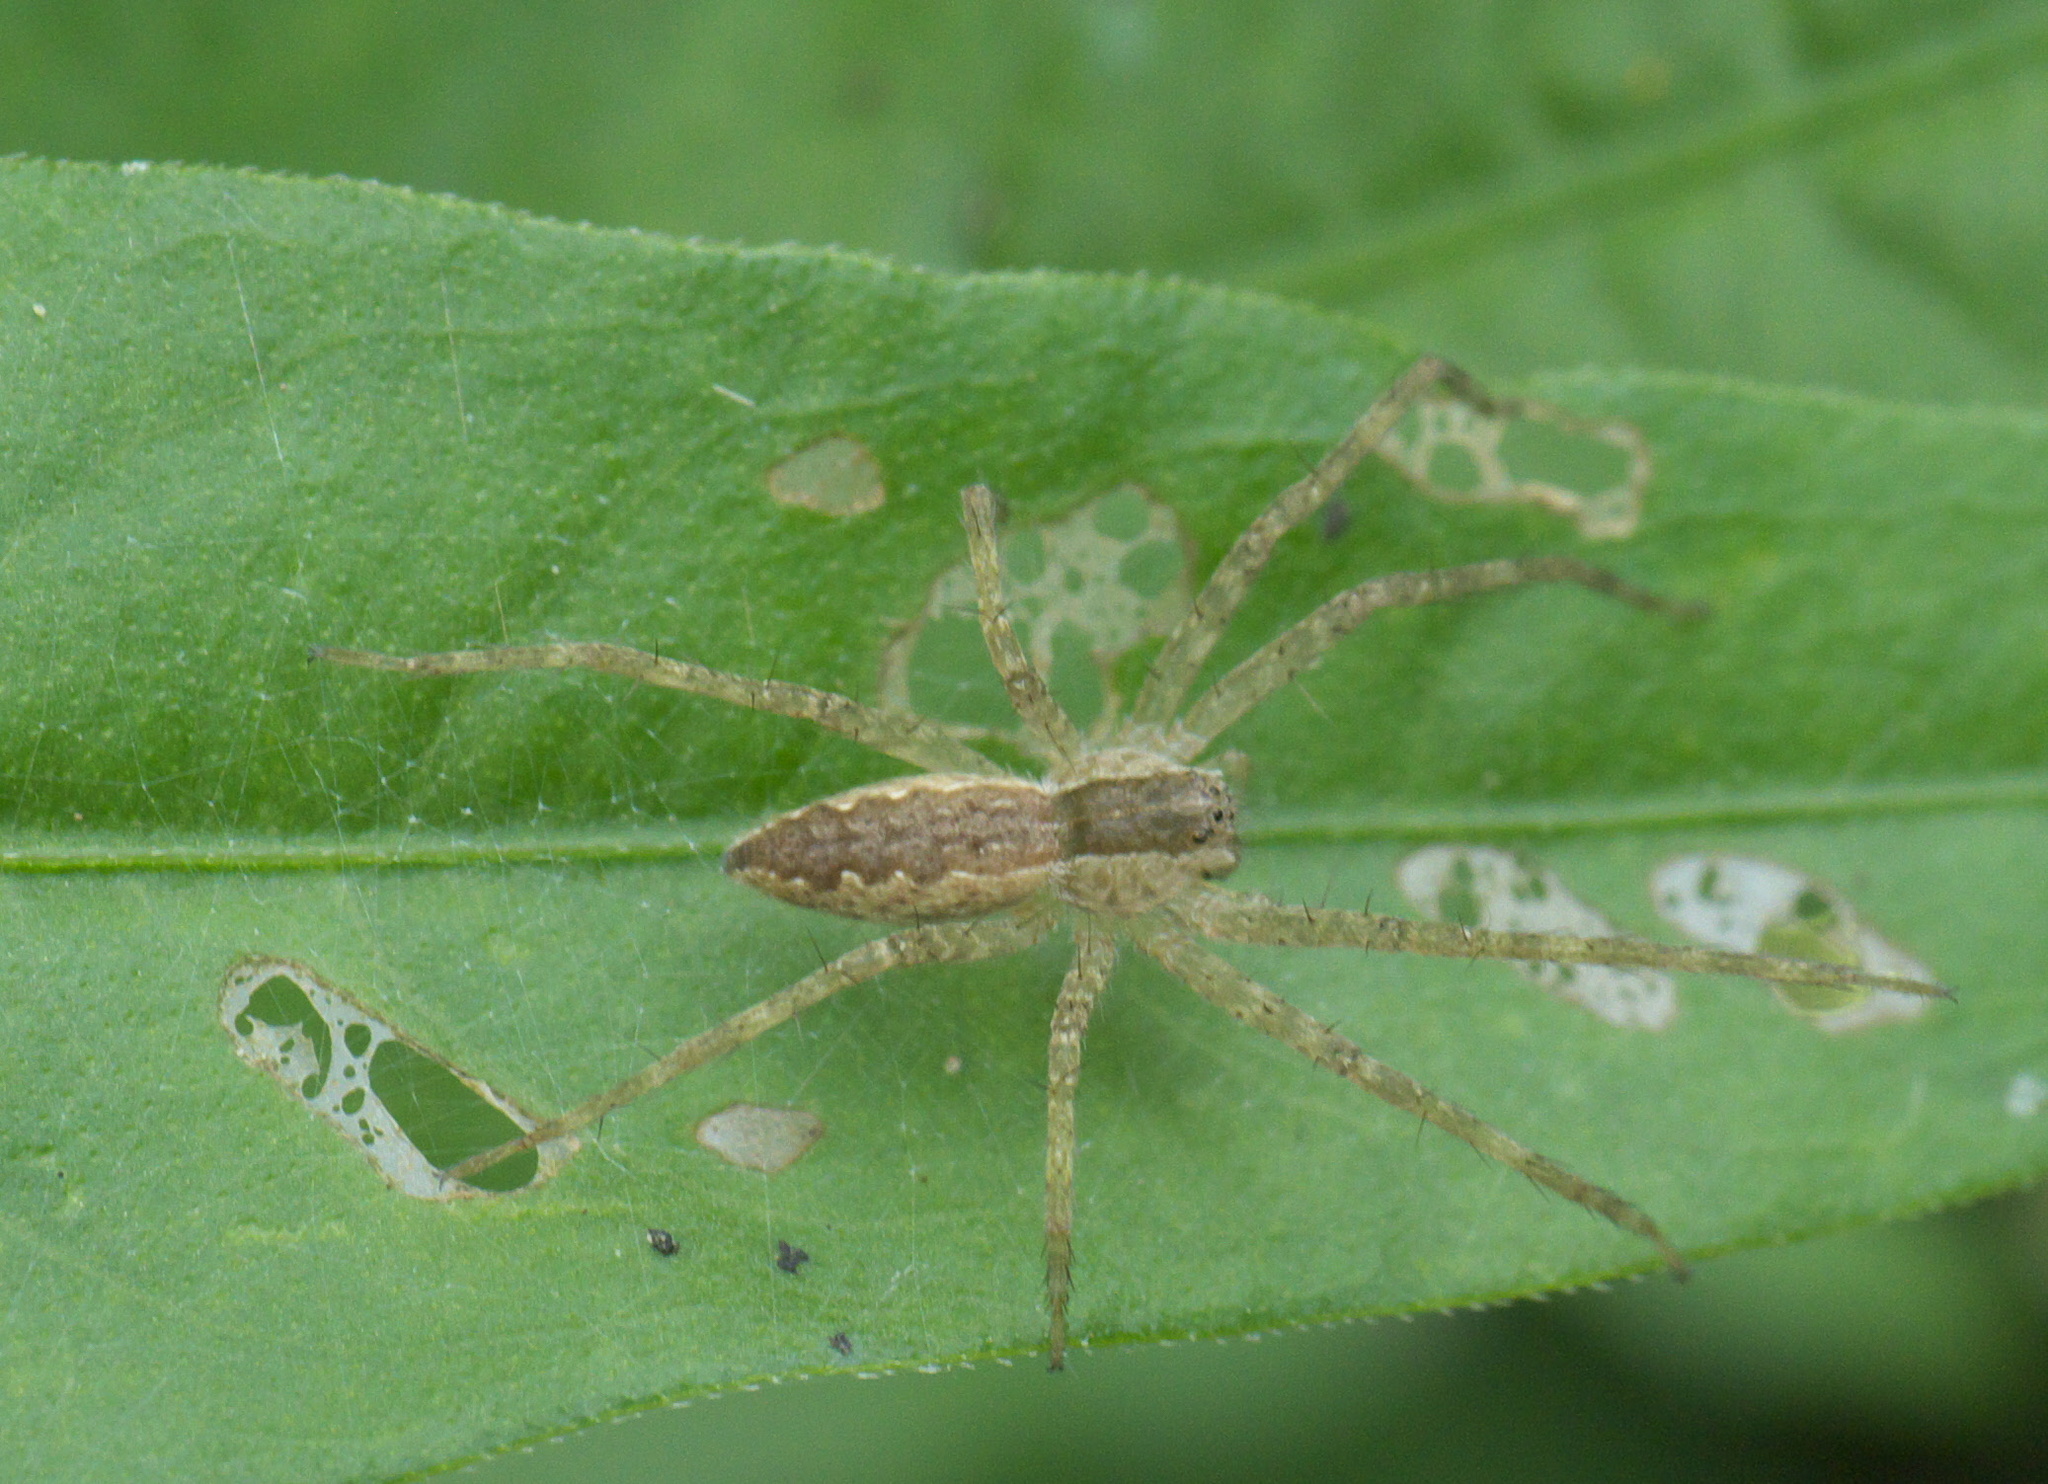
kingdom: Animalia
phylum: Arthropoda
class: Arachnida
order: Araneae
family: Pisauridae
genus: Pisaurina
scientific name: Pisaurina mira
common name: American nursery web spider
